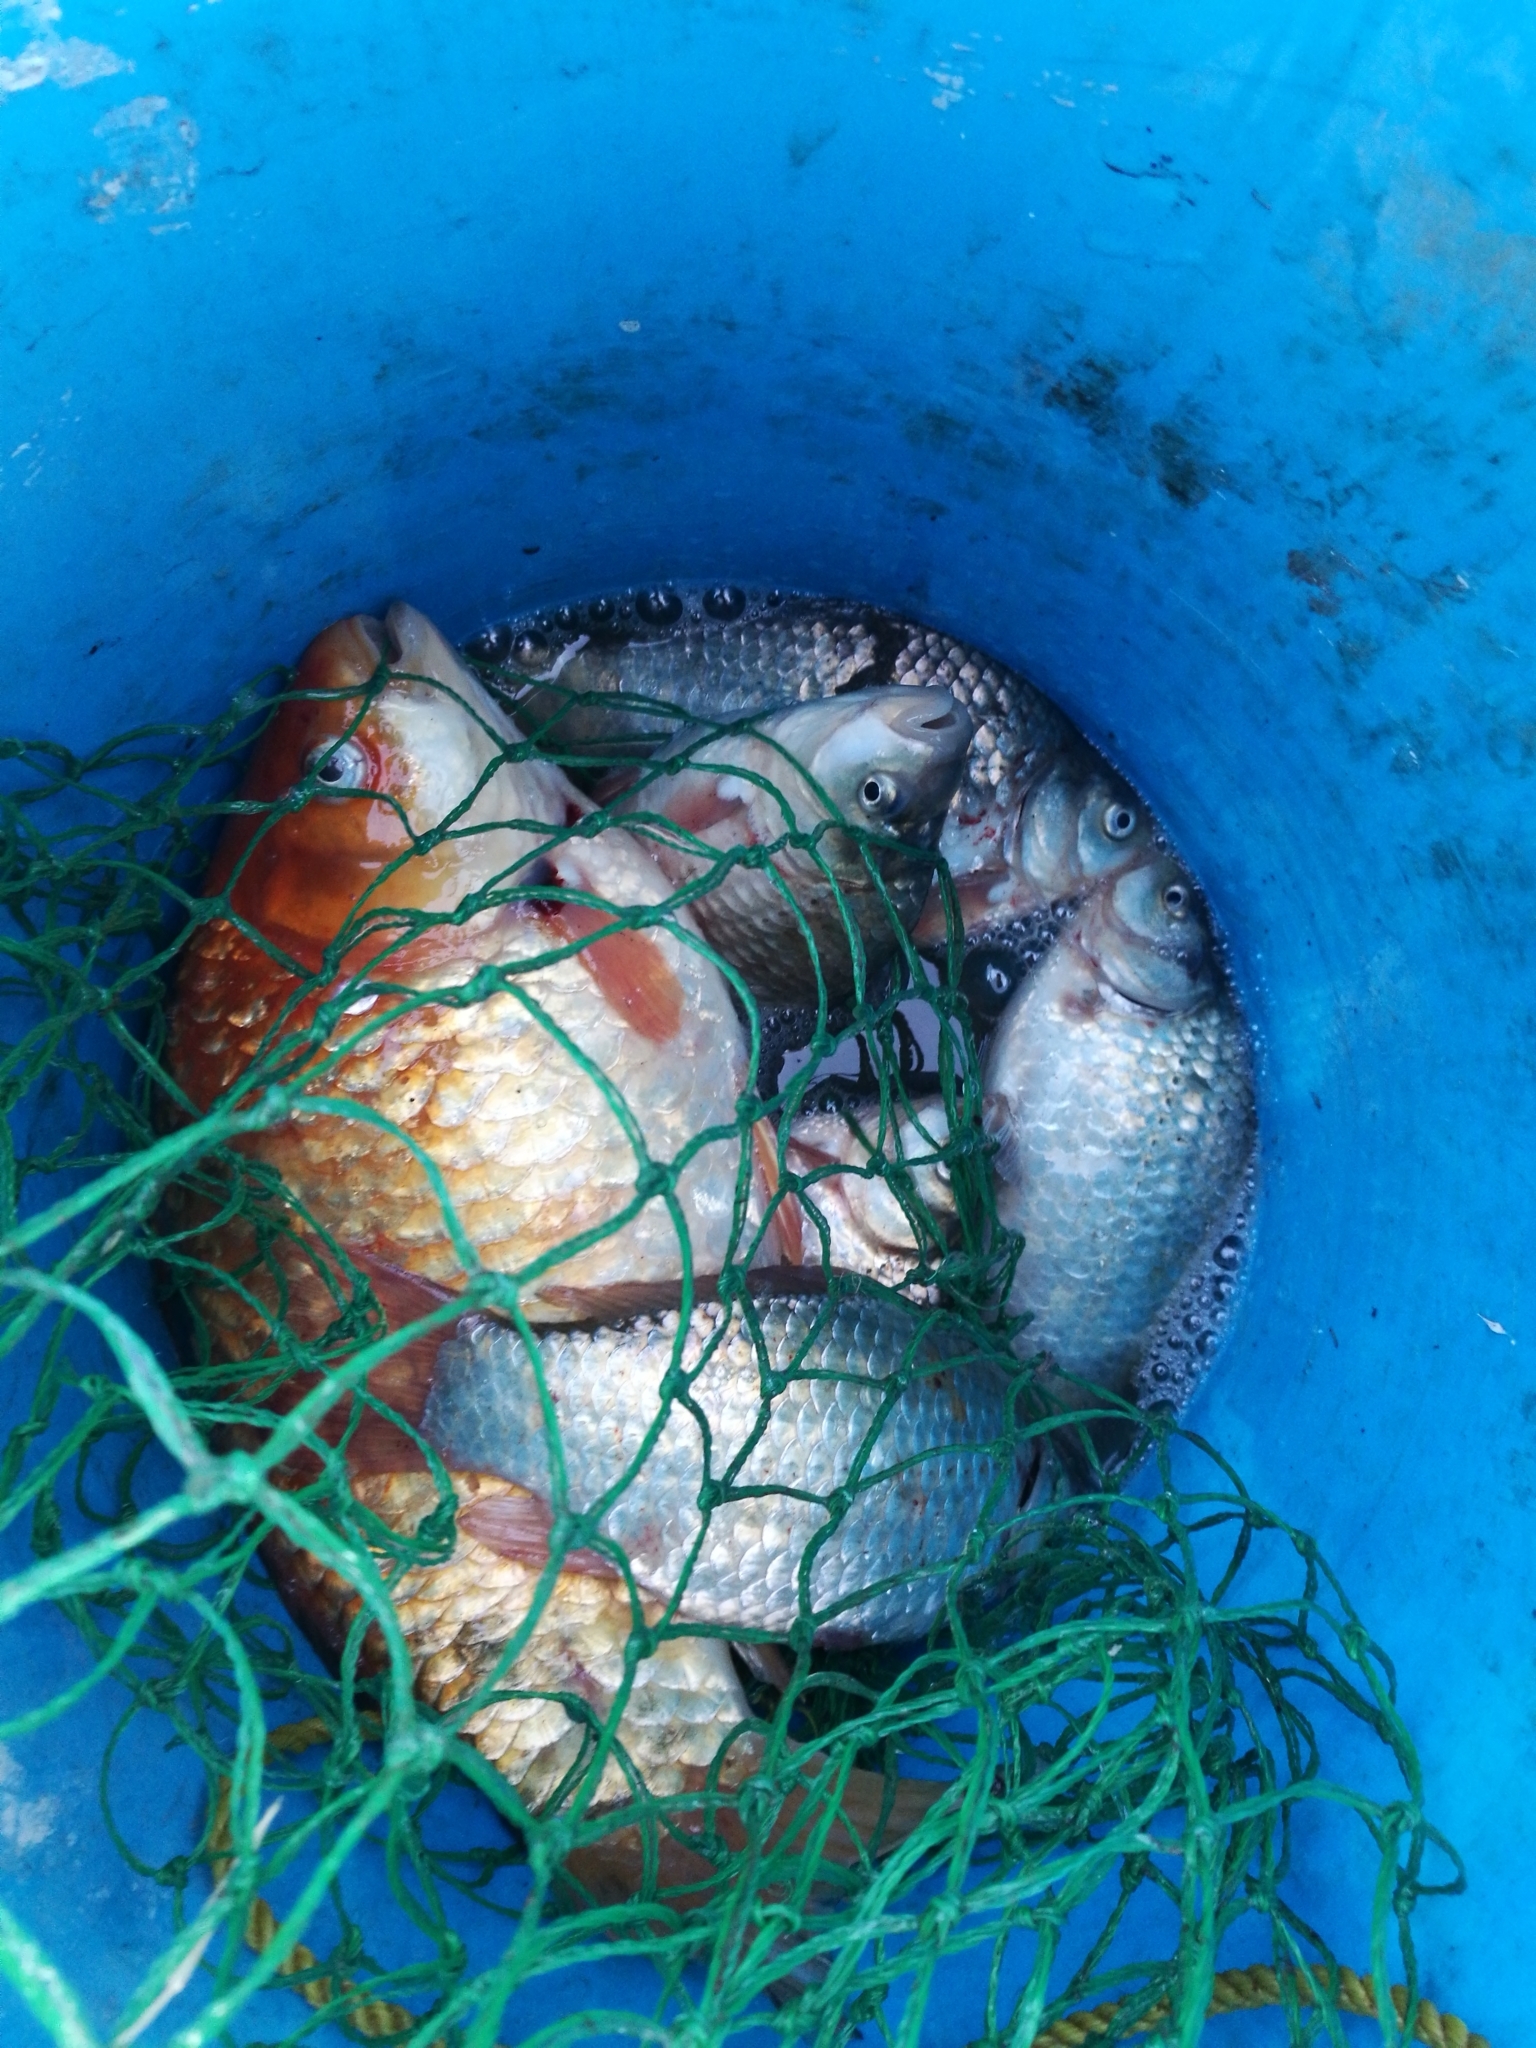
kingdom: Animalia
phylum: Chordata
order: Cypriniformes
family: Cyprinidae
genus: Carassius
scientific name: Carassius auratus
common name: Goldfish
